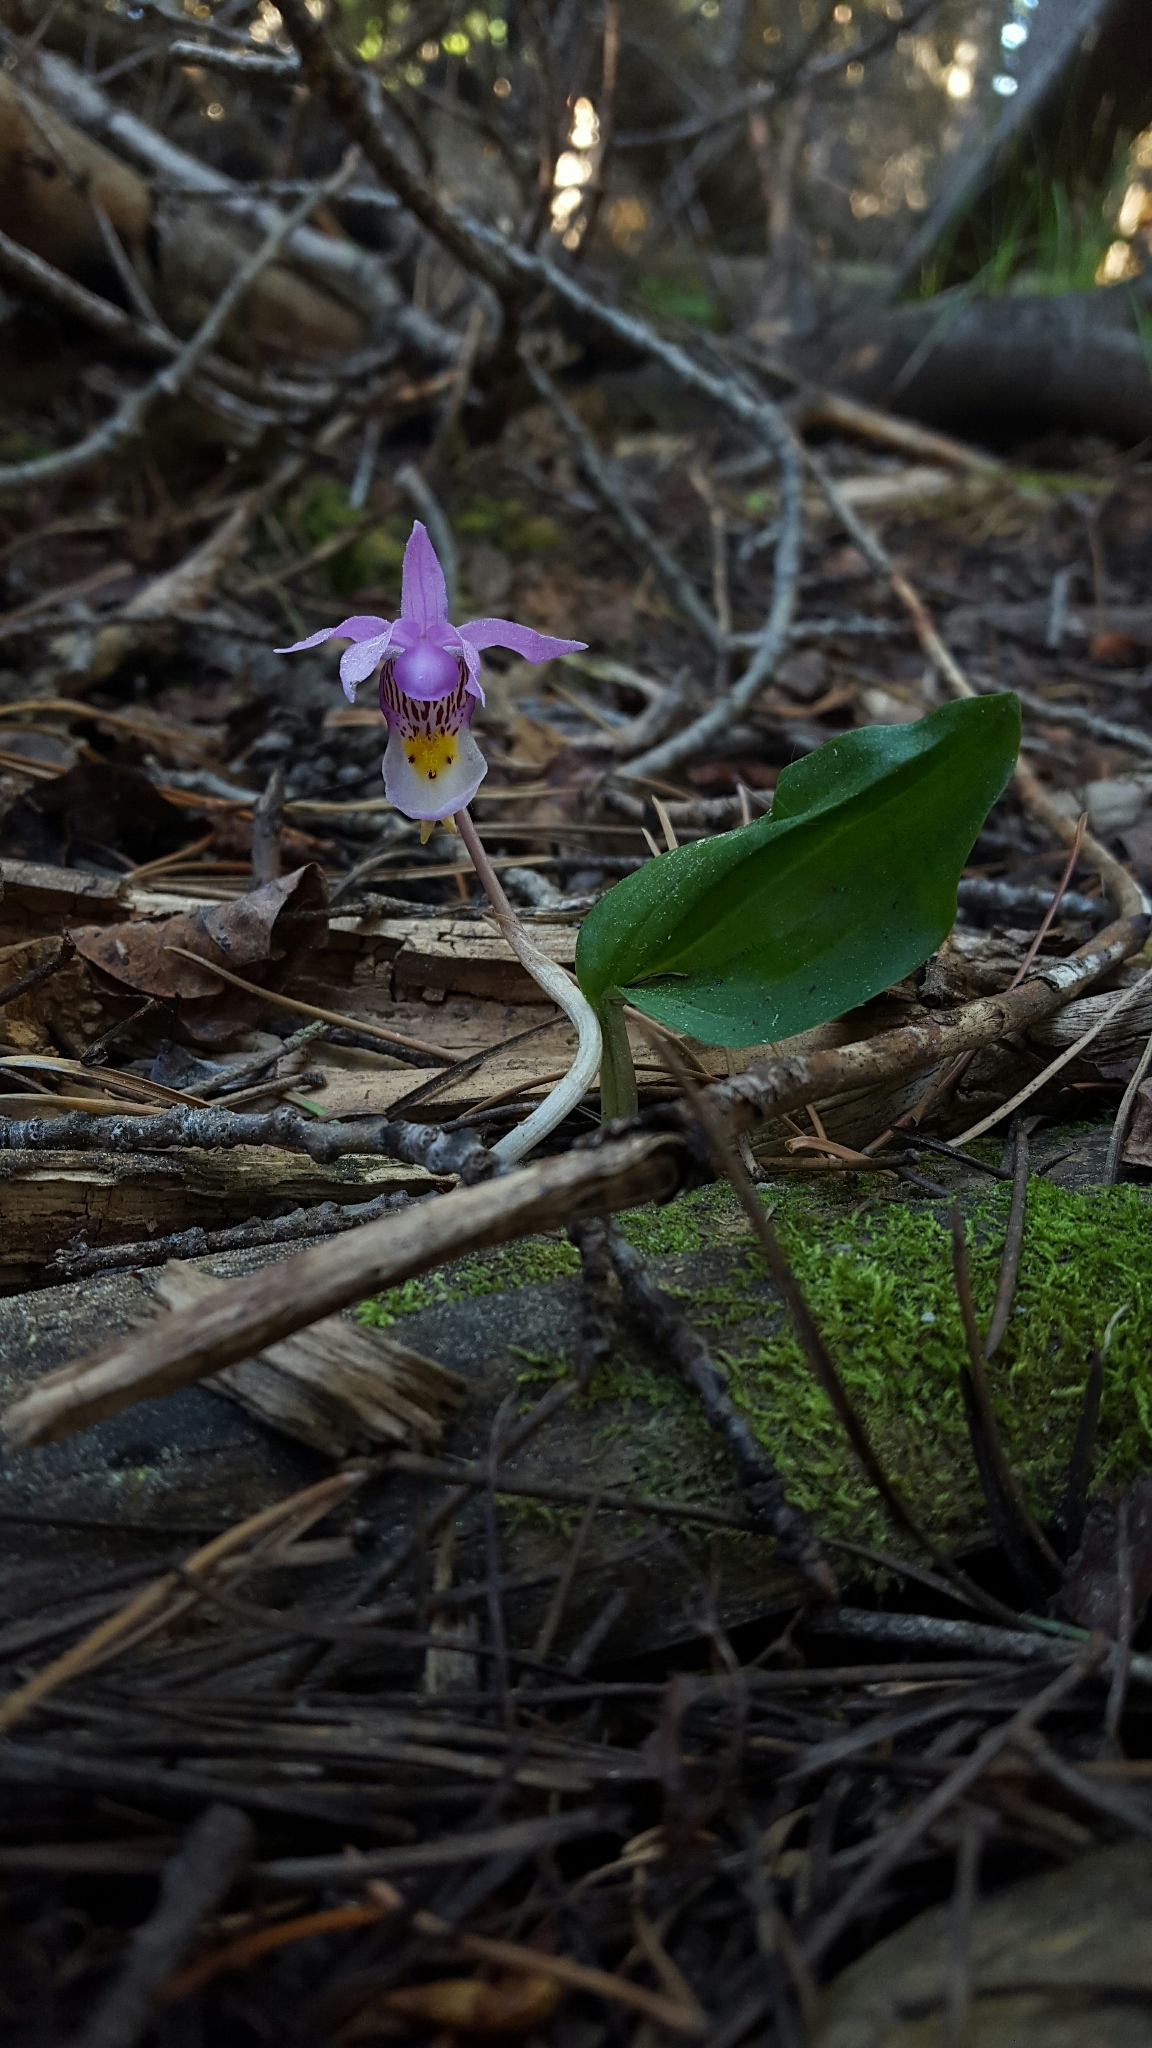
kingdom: Plantae
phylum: Tracheophyta
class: Liliopsida
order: Asparagales
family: Orchidaceae
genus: Calypso
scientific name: Calypso bulbosa
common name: Calypso
